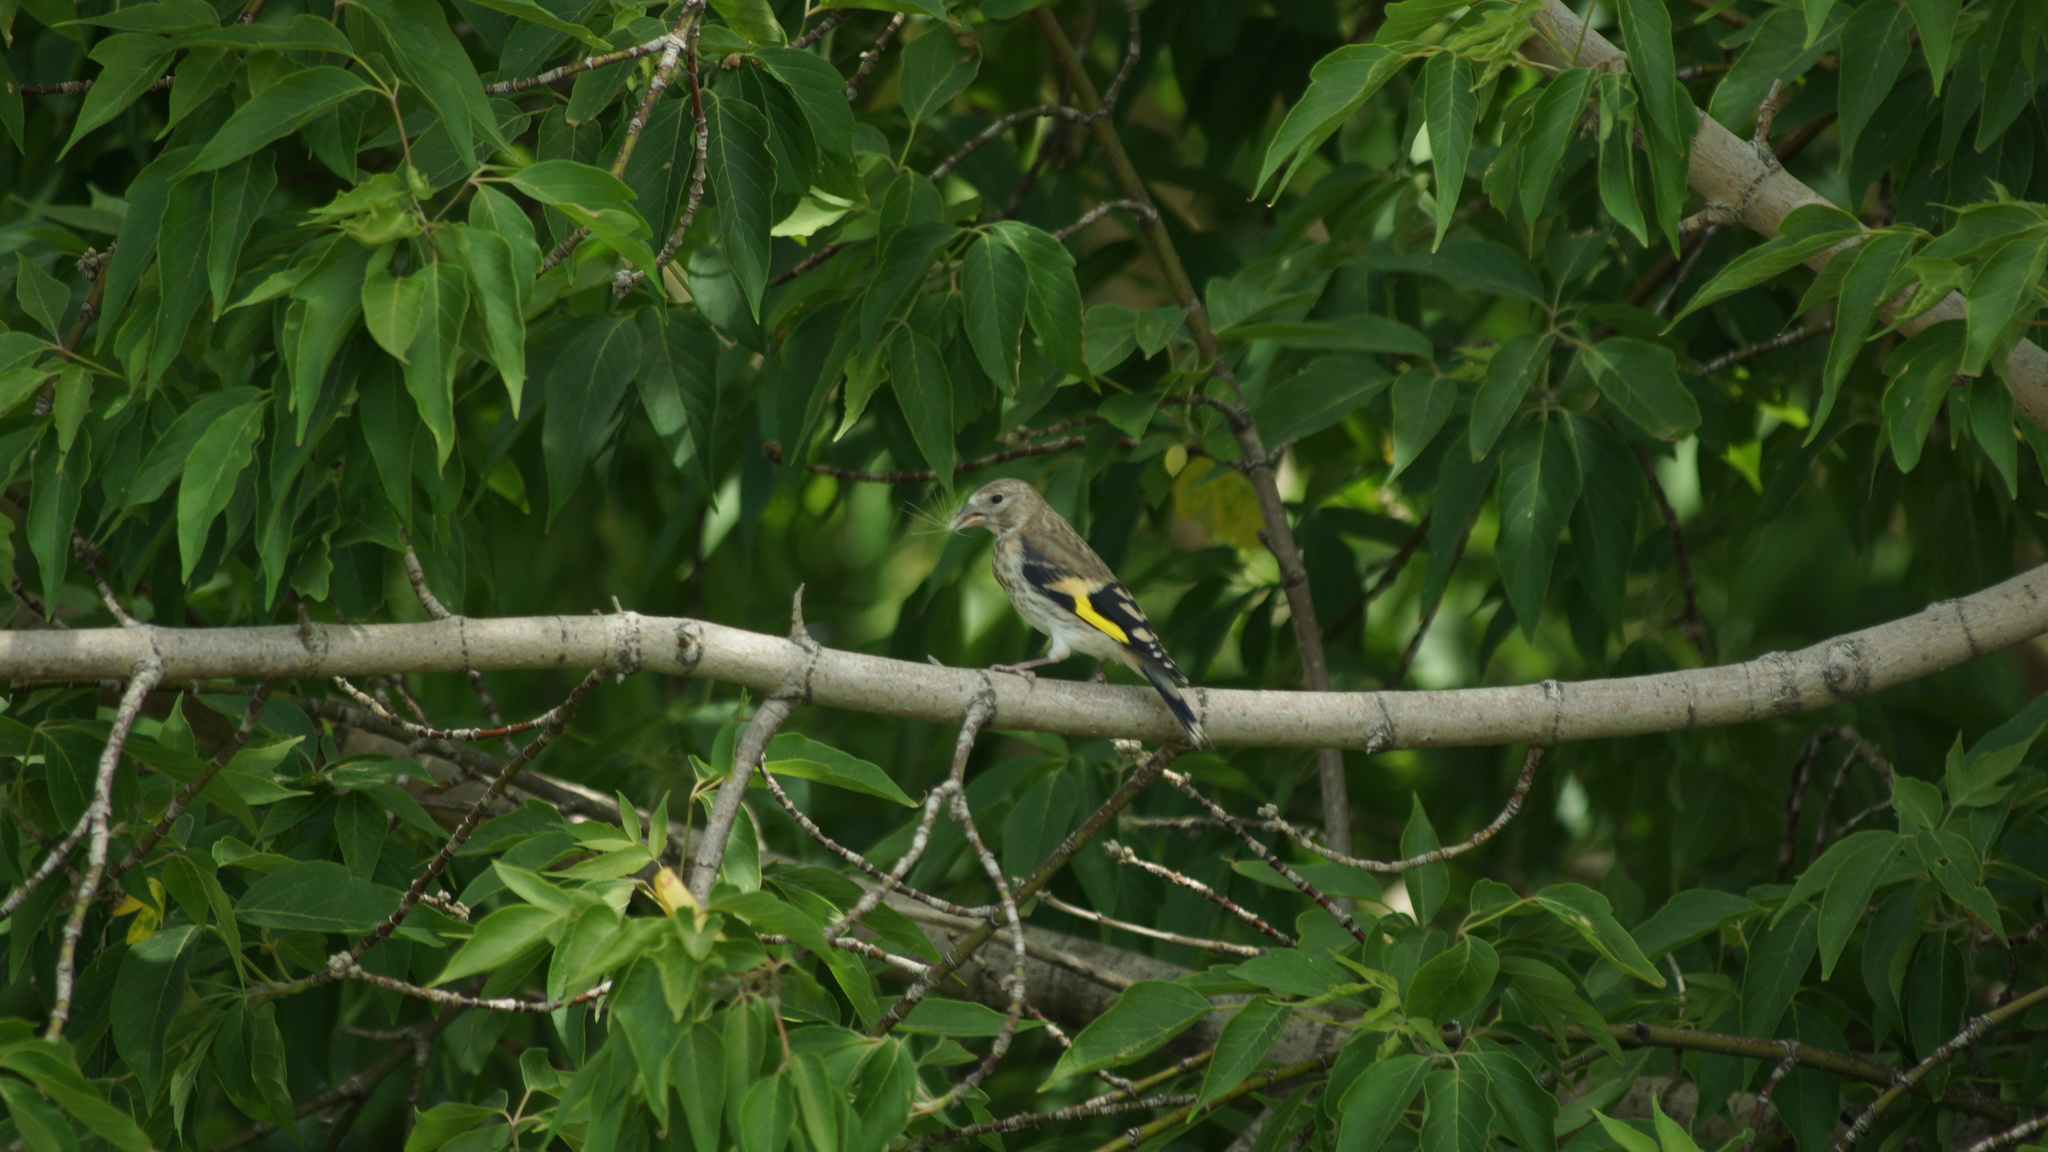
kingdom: Animalia
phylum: Chordata
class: Aves
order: Passeriformes
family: Fringillidae
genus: Carduelis
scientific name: Carduelis carduelis
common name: European goldfinch
